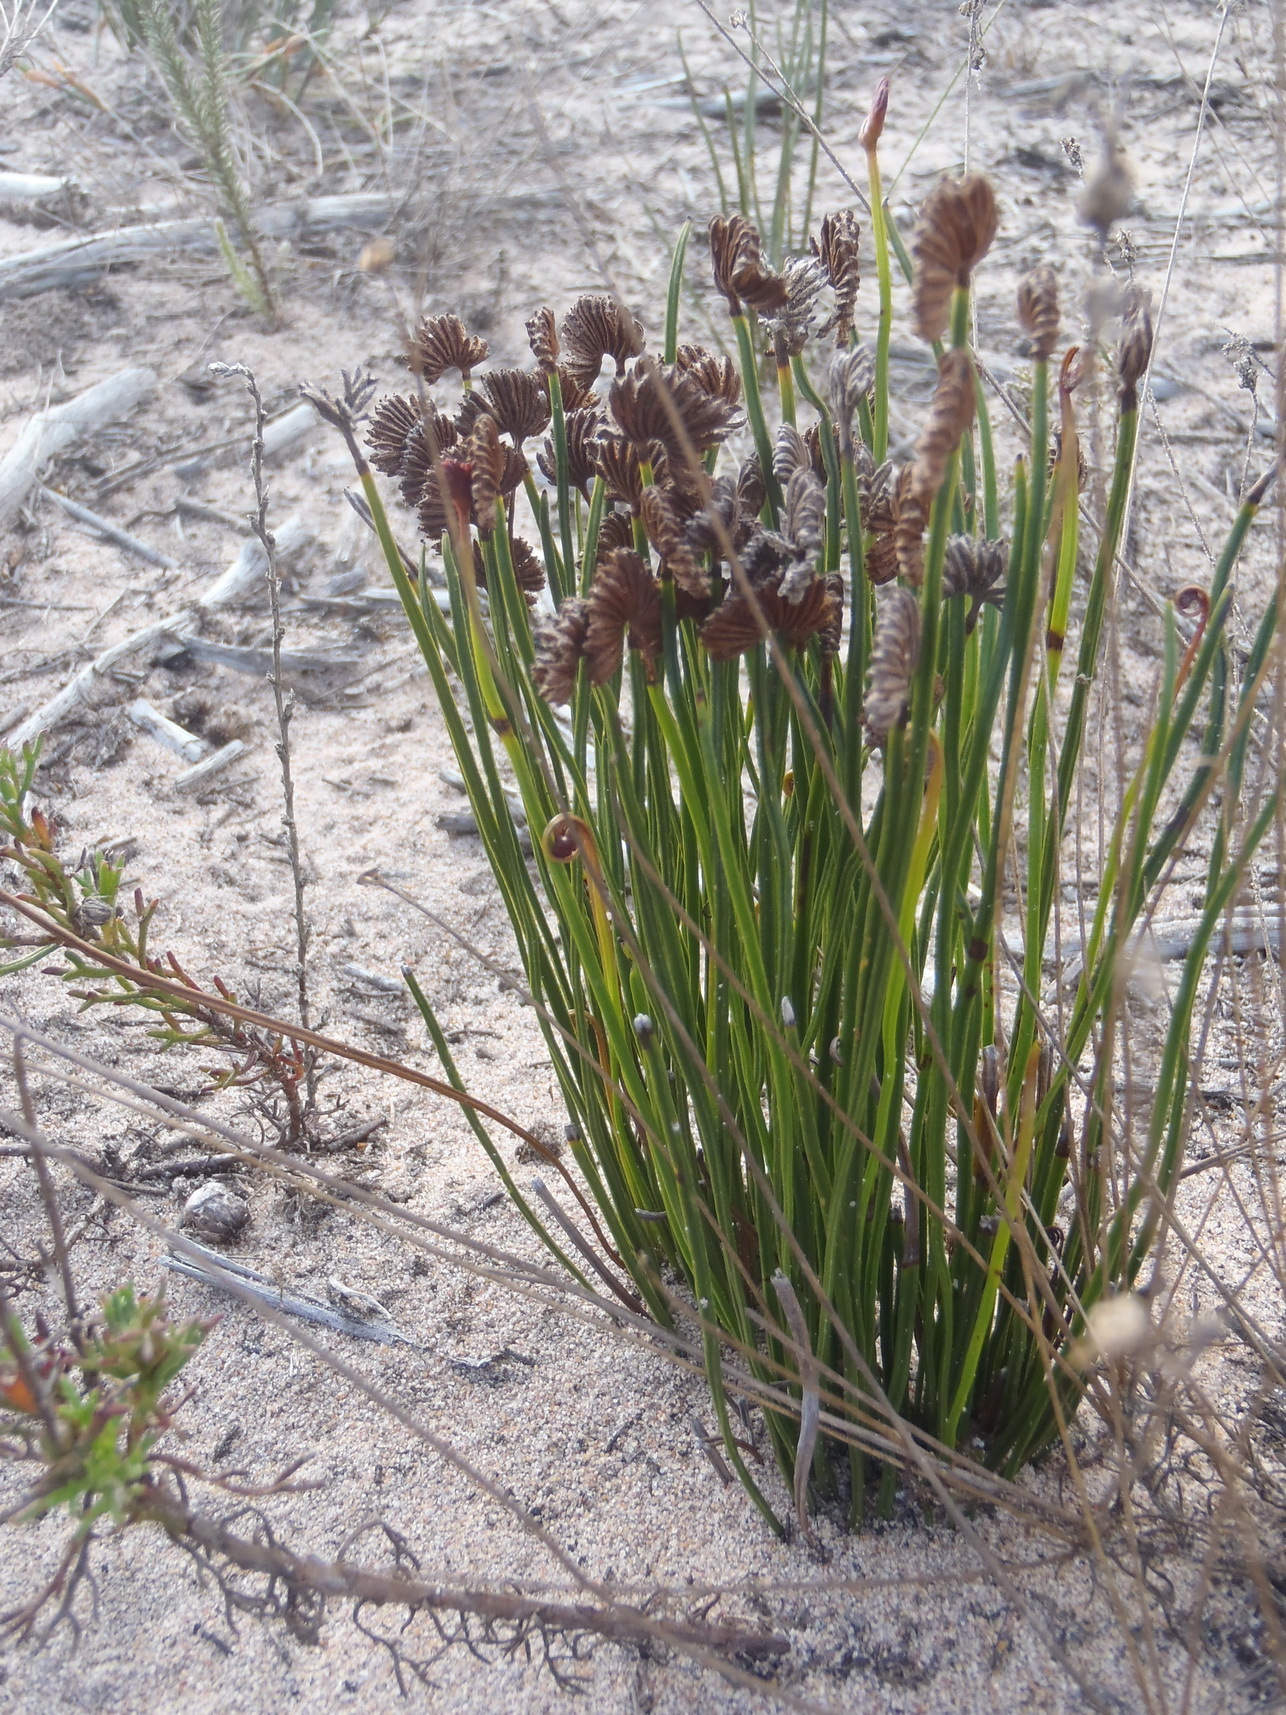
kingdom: Plantae
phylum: Tracheophyta
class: Polypodiopsida
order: Schizaeales
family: Schizaeaceae
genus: Schizaea
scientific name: Schizaea pectinata
